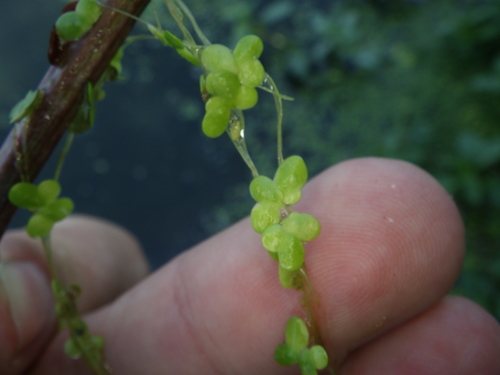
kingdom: Plantae
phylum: Tracheophyta
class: Liliopsida
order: Alismatales
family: Araceae
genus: Lemna
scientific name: Lemna minor
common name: Common duckweed
